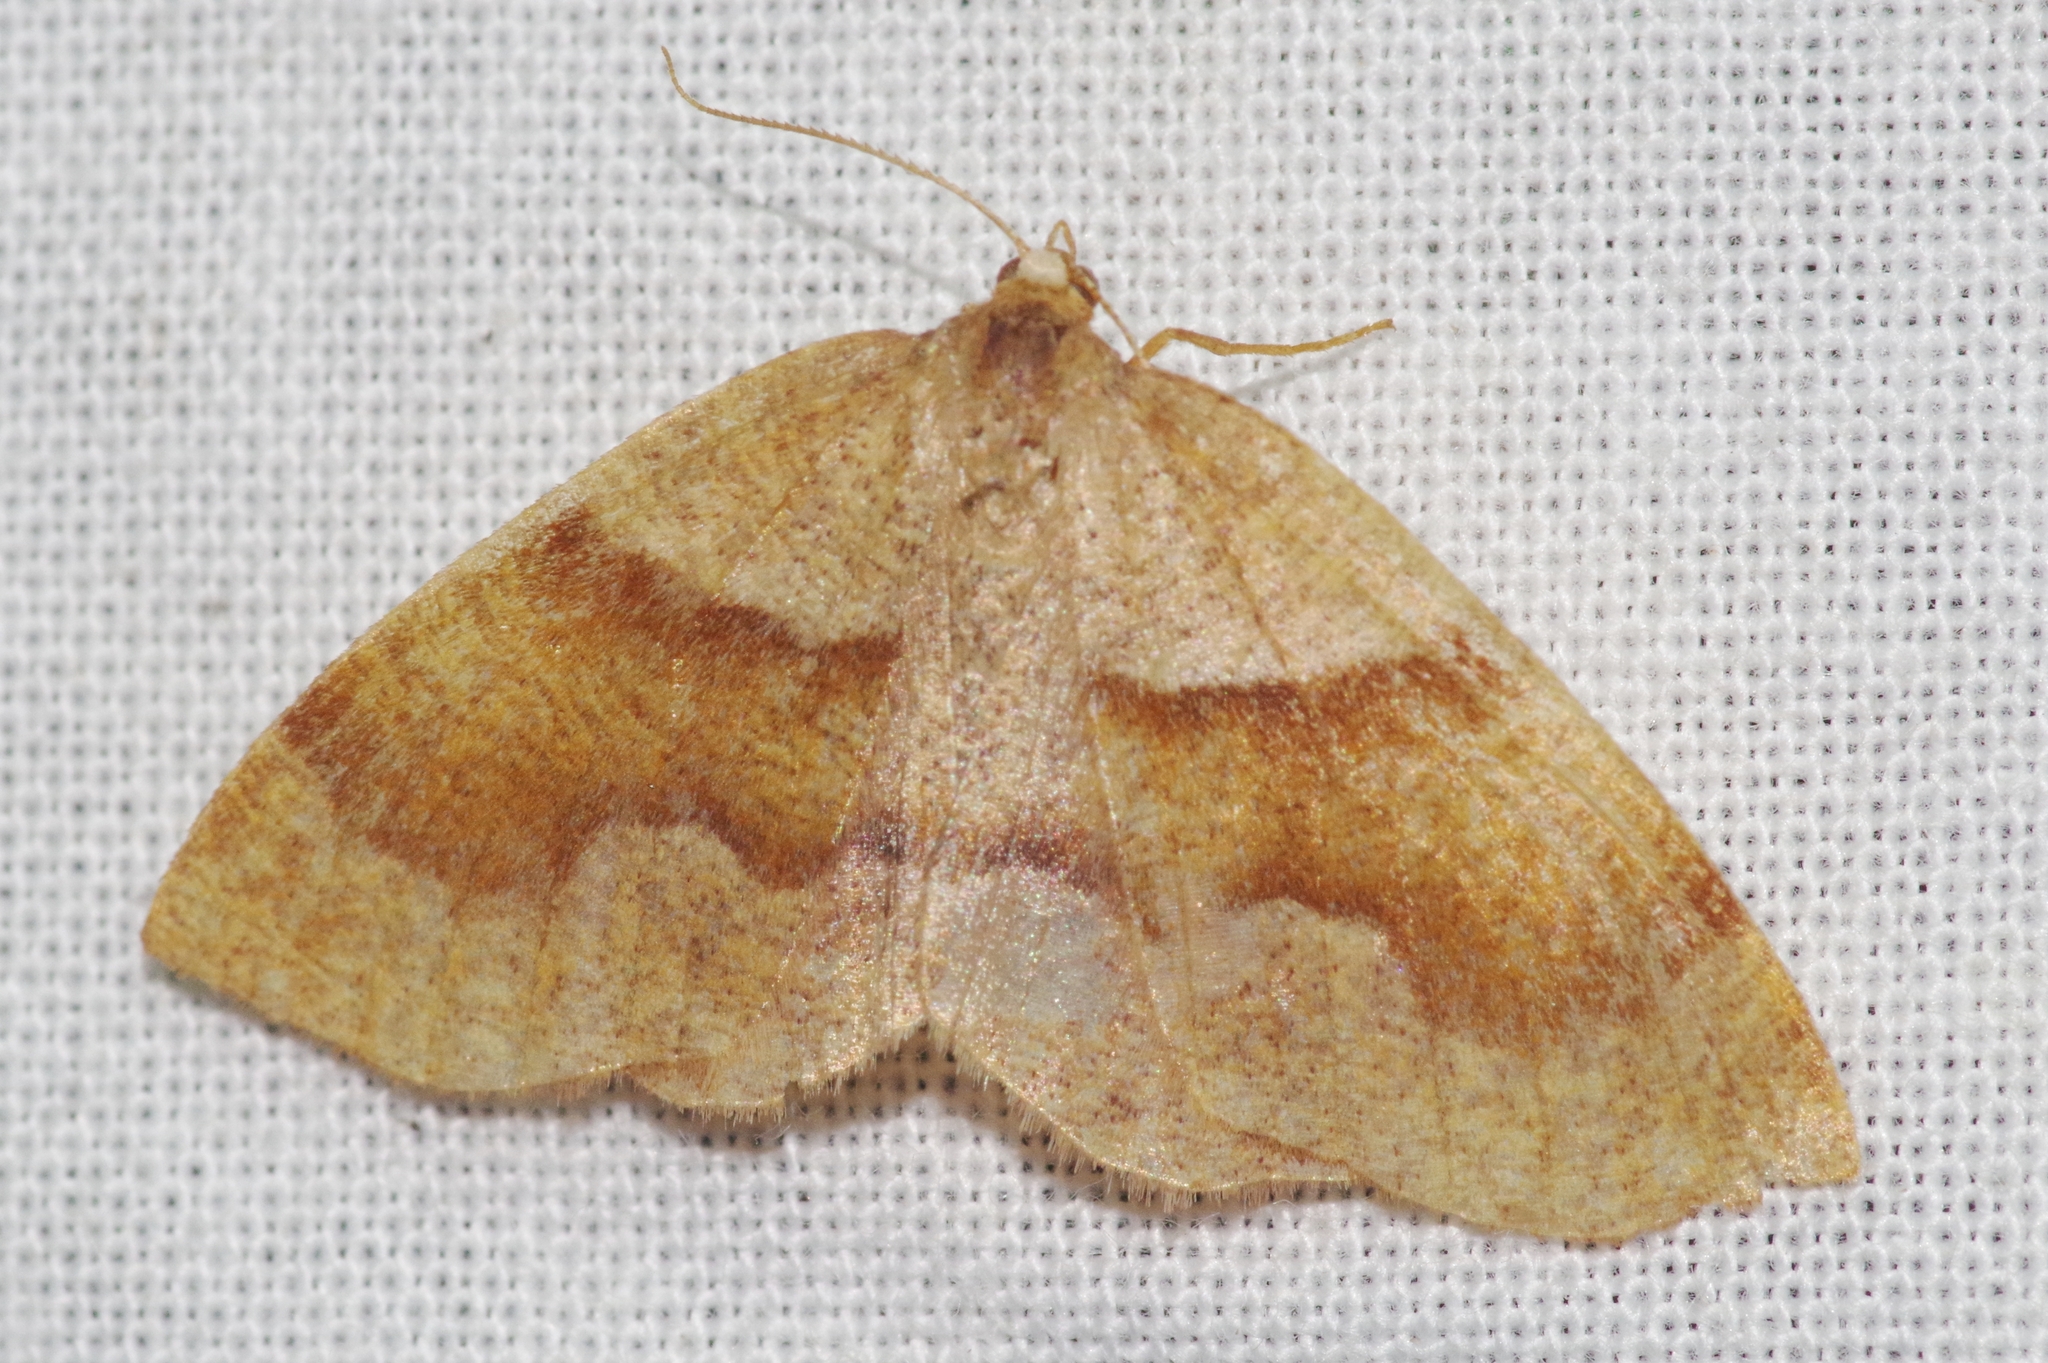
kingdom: Animalia
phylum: Arthropoda
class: Insecta
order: Lepidoptera
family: Geometridae
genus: Plagodis
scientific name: Plagodis pulveraria
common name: Barred umber
